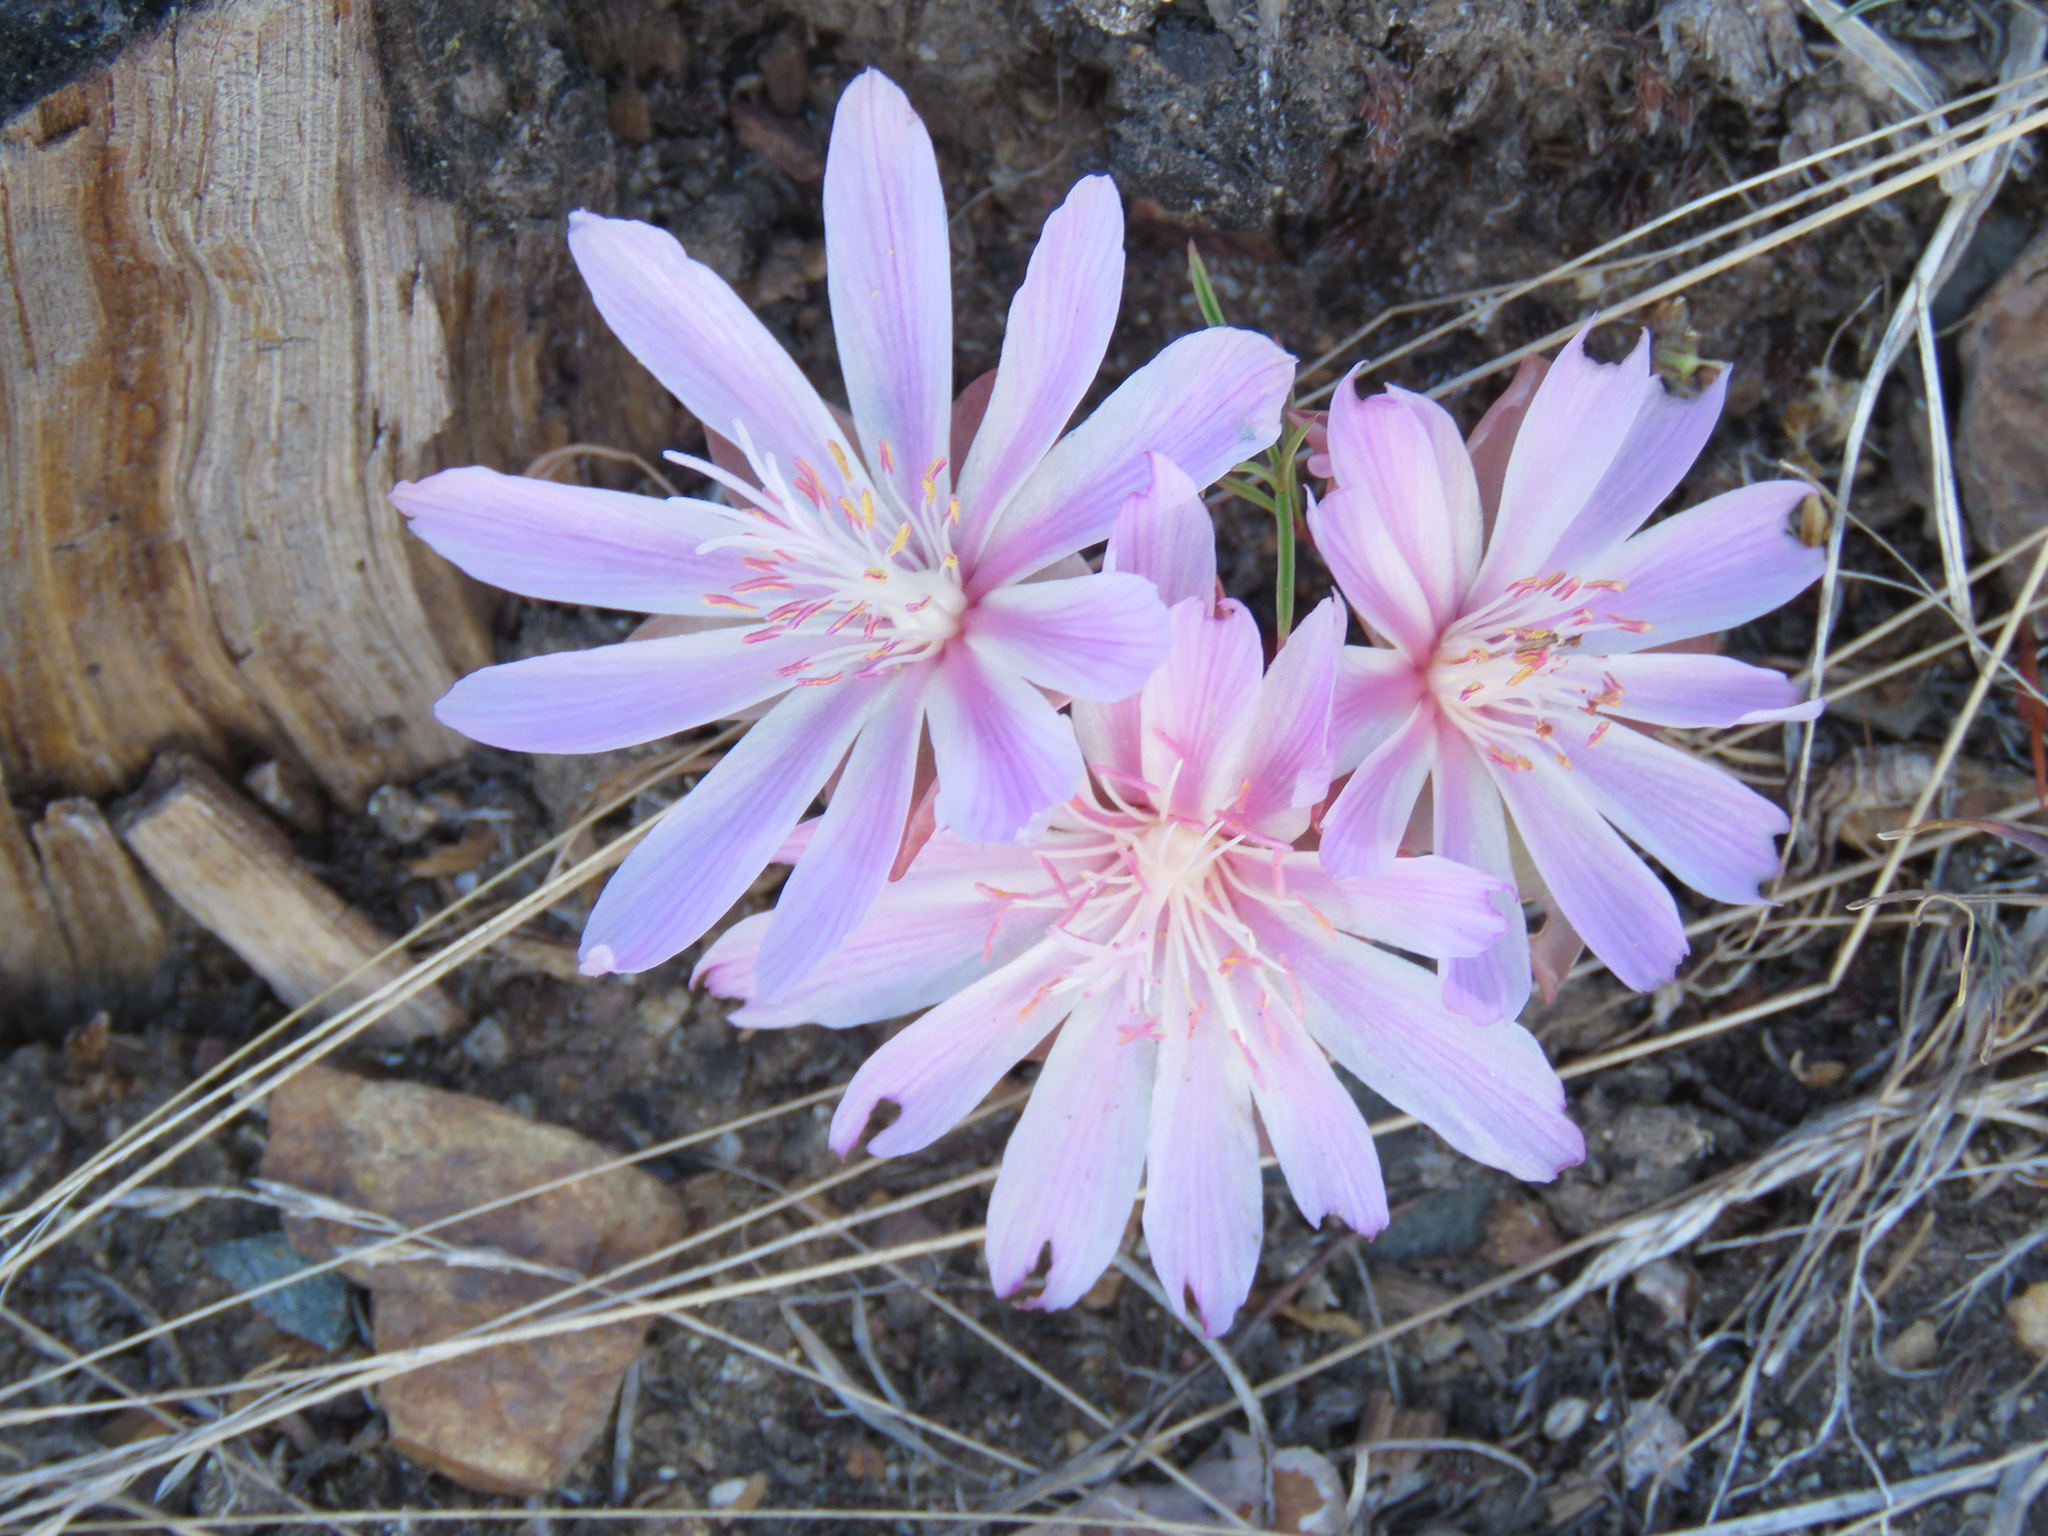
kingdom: Plantae
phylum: Tracheophyta
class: Magnoliopsida
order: Caryophyllales
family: Montiaceae
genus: Lewisia
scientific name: Lewisia rediviva
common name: Bitter-root
